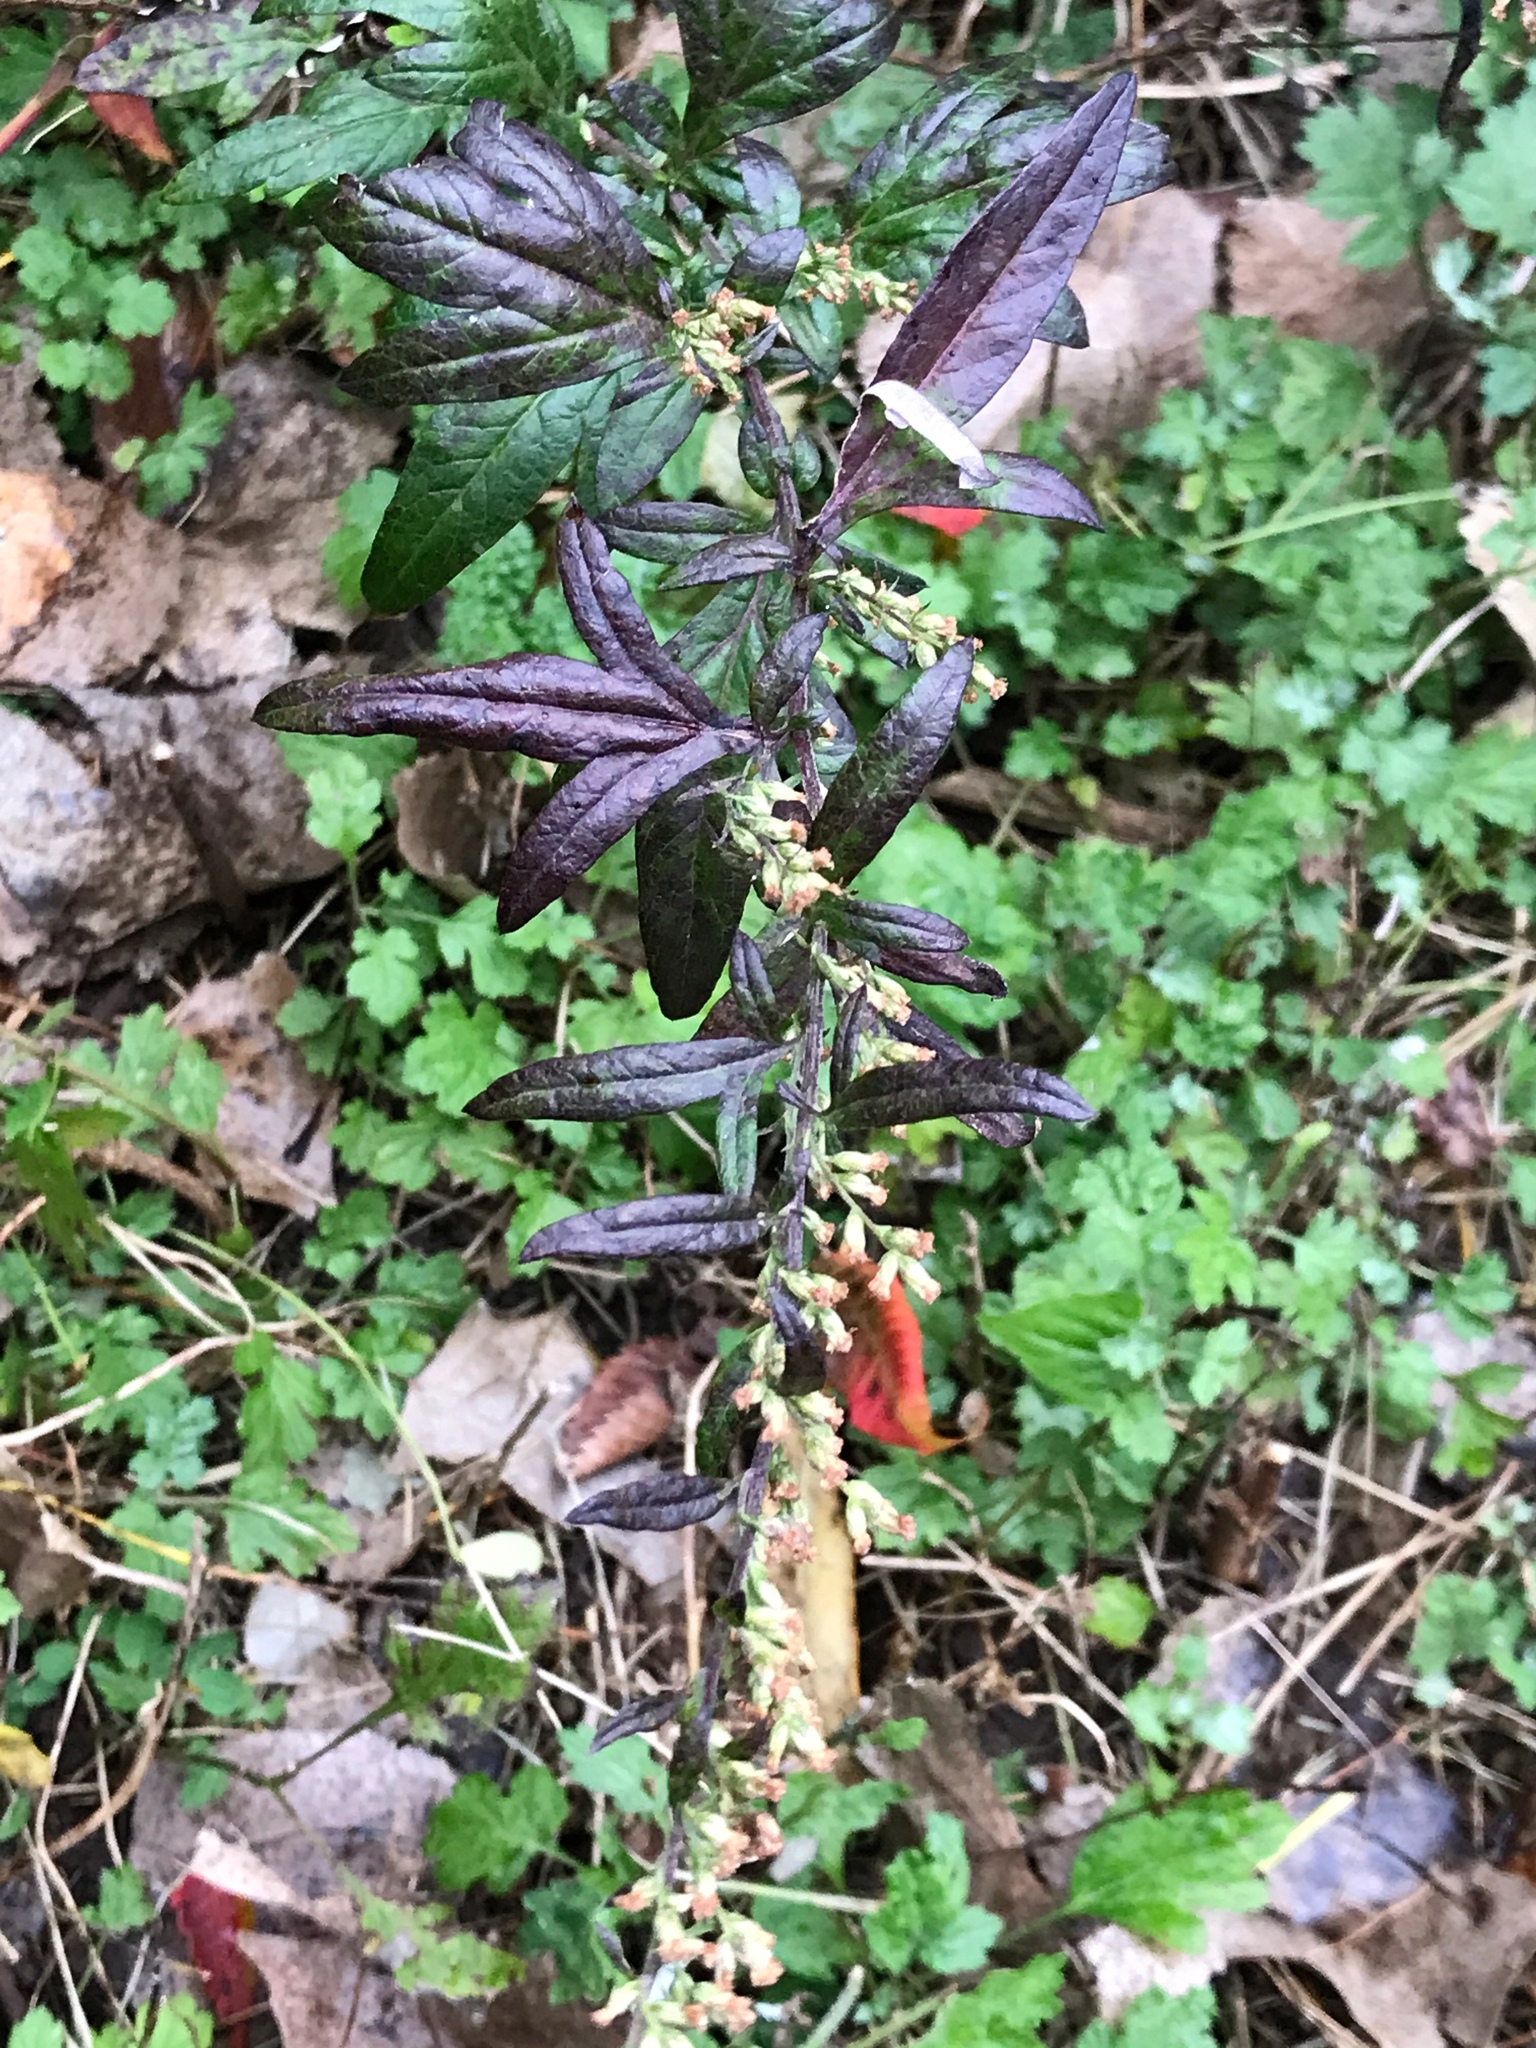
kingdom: Plantae
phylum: Tracheophyta
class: Magnoliopsida
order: Asterales
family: Asteraceae
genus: Artemisia
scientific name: Artemisia vulgaris
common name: Mugwort
